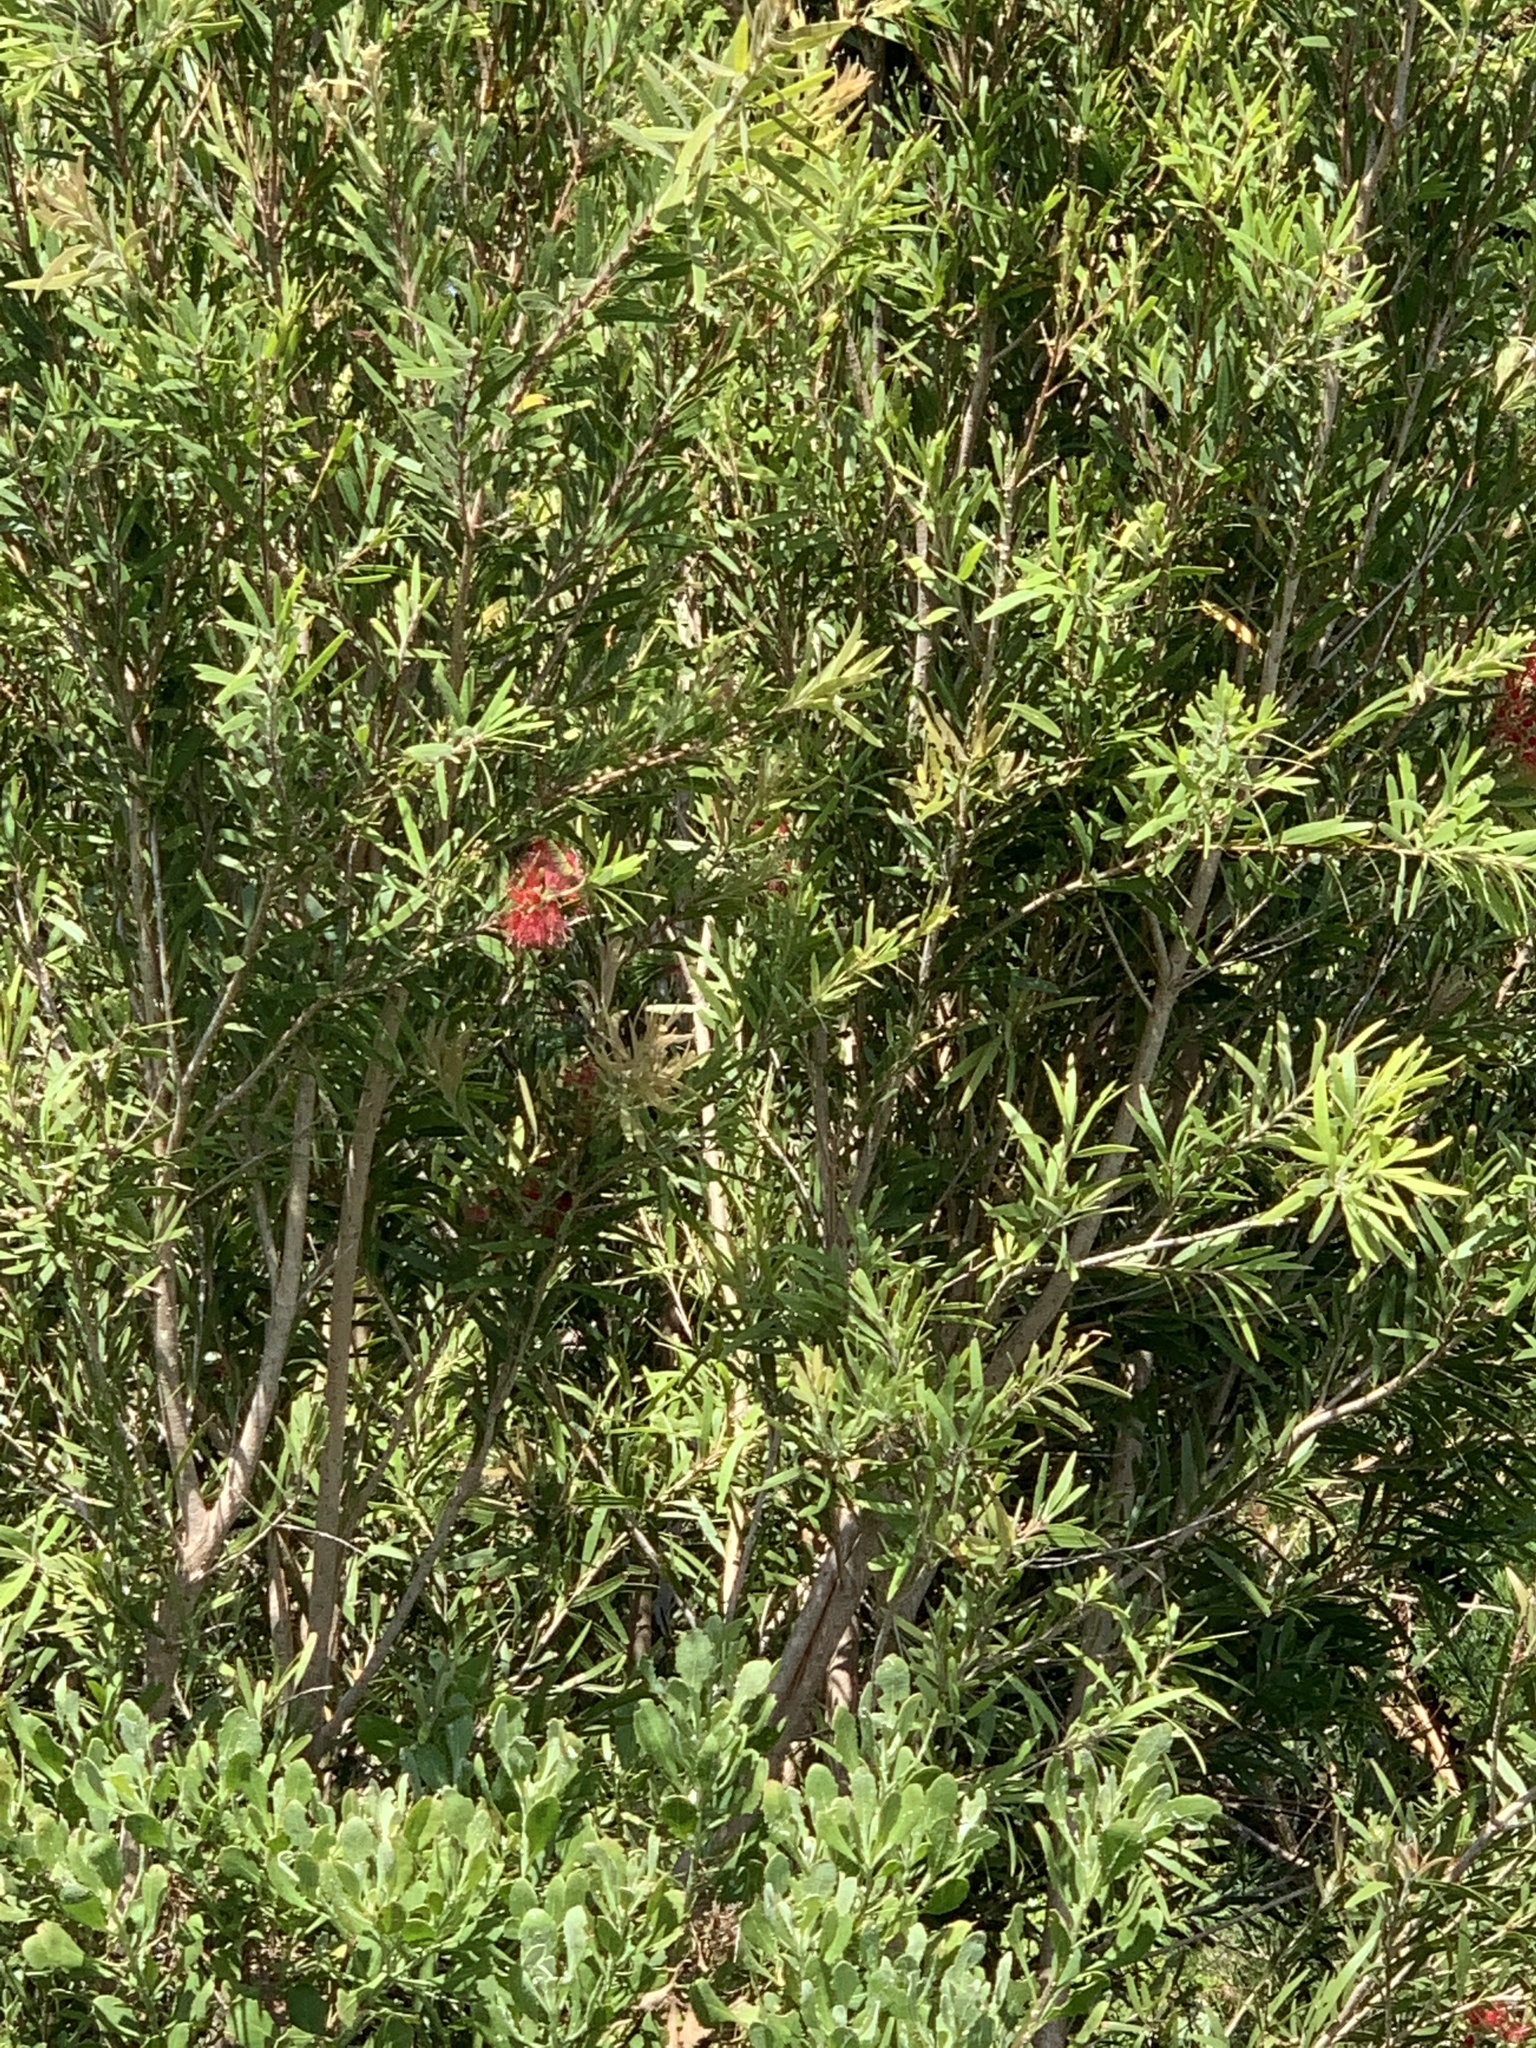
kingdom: Plantae
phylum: Tracheophyta
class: Magnoliopsida
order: Myrtales
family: Myrtaceae
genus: Callistemon
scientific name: Callistemon viminalis
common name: Drooping bottlebrush
